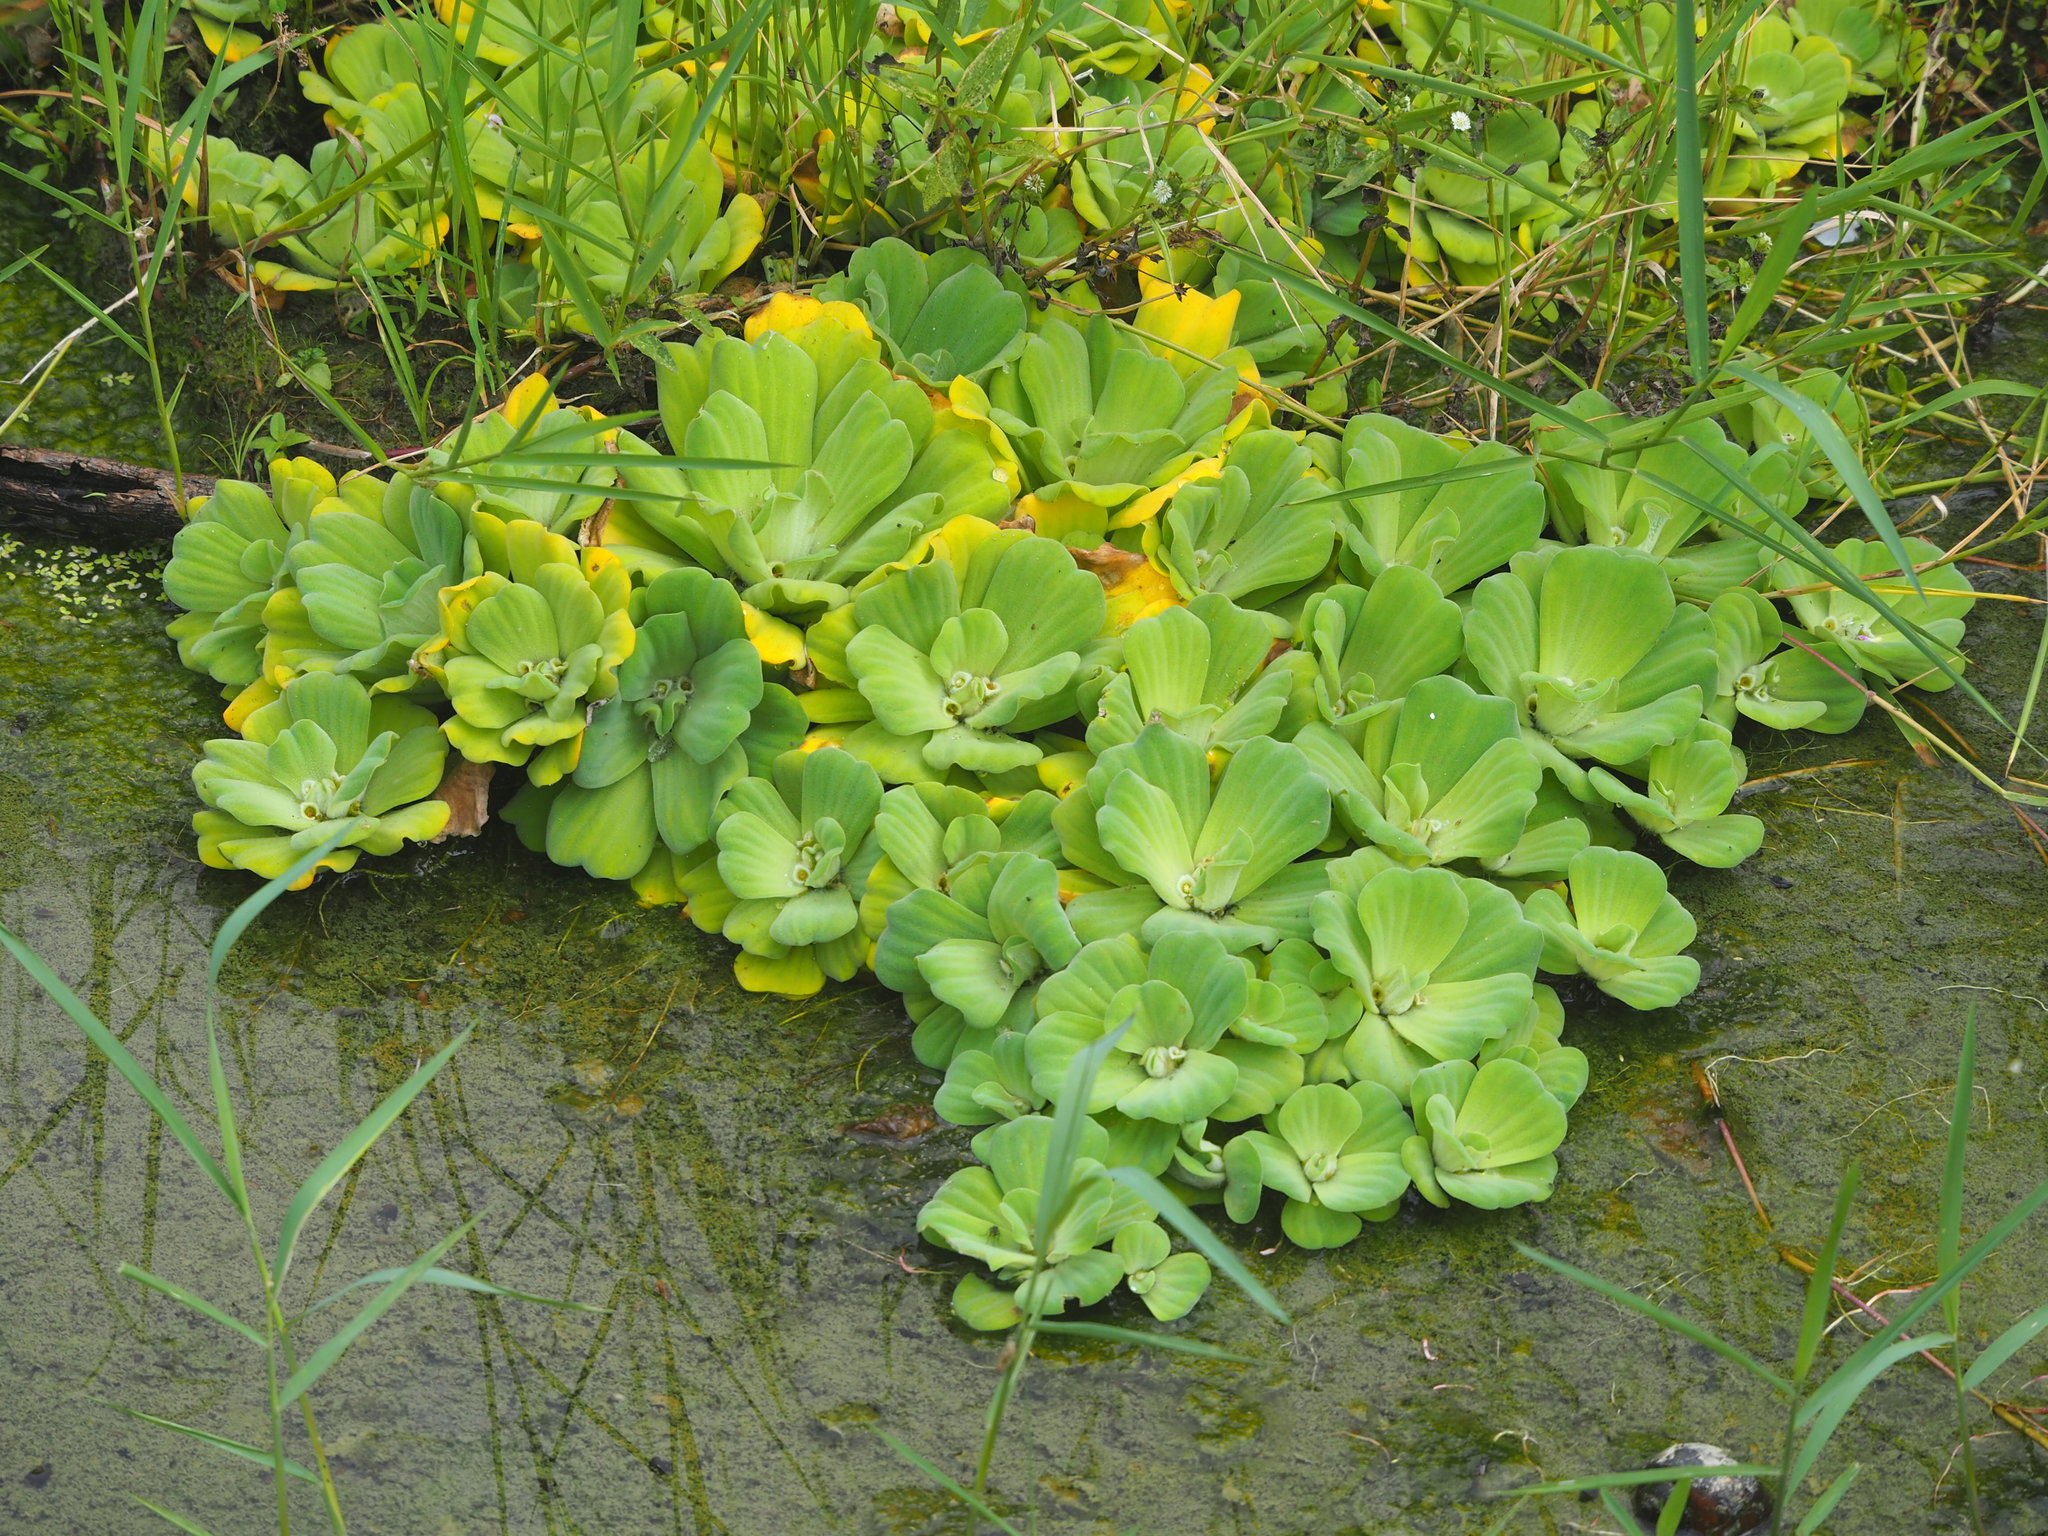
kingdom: Plantae
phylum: Tracheophyta
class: Liliopsida
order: Alismatales
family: Araceae
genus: Pistia
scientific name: Pistia stratiotes
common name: Water lettuce
